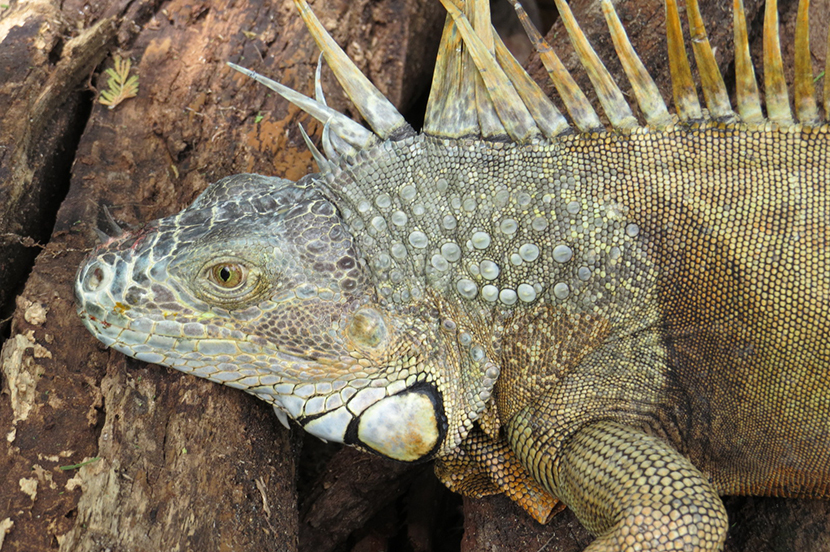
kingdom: Animalia
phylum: Chordata
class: Squamata
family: Iguanidae
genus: Iguana
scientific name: Iguana iguana
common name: Green iguana
